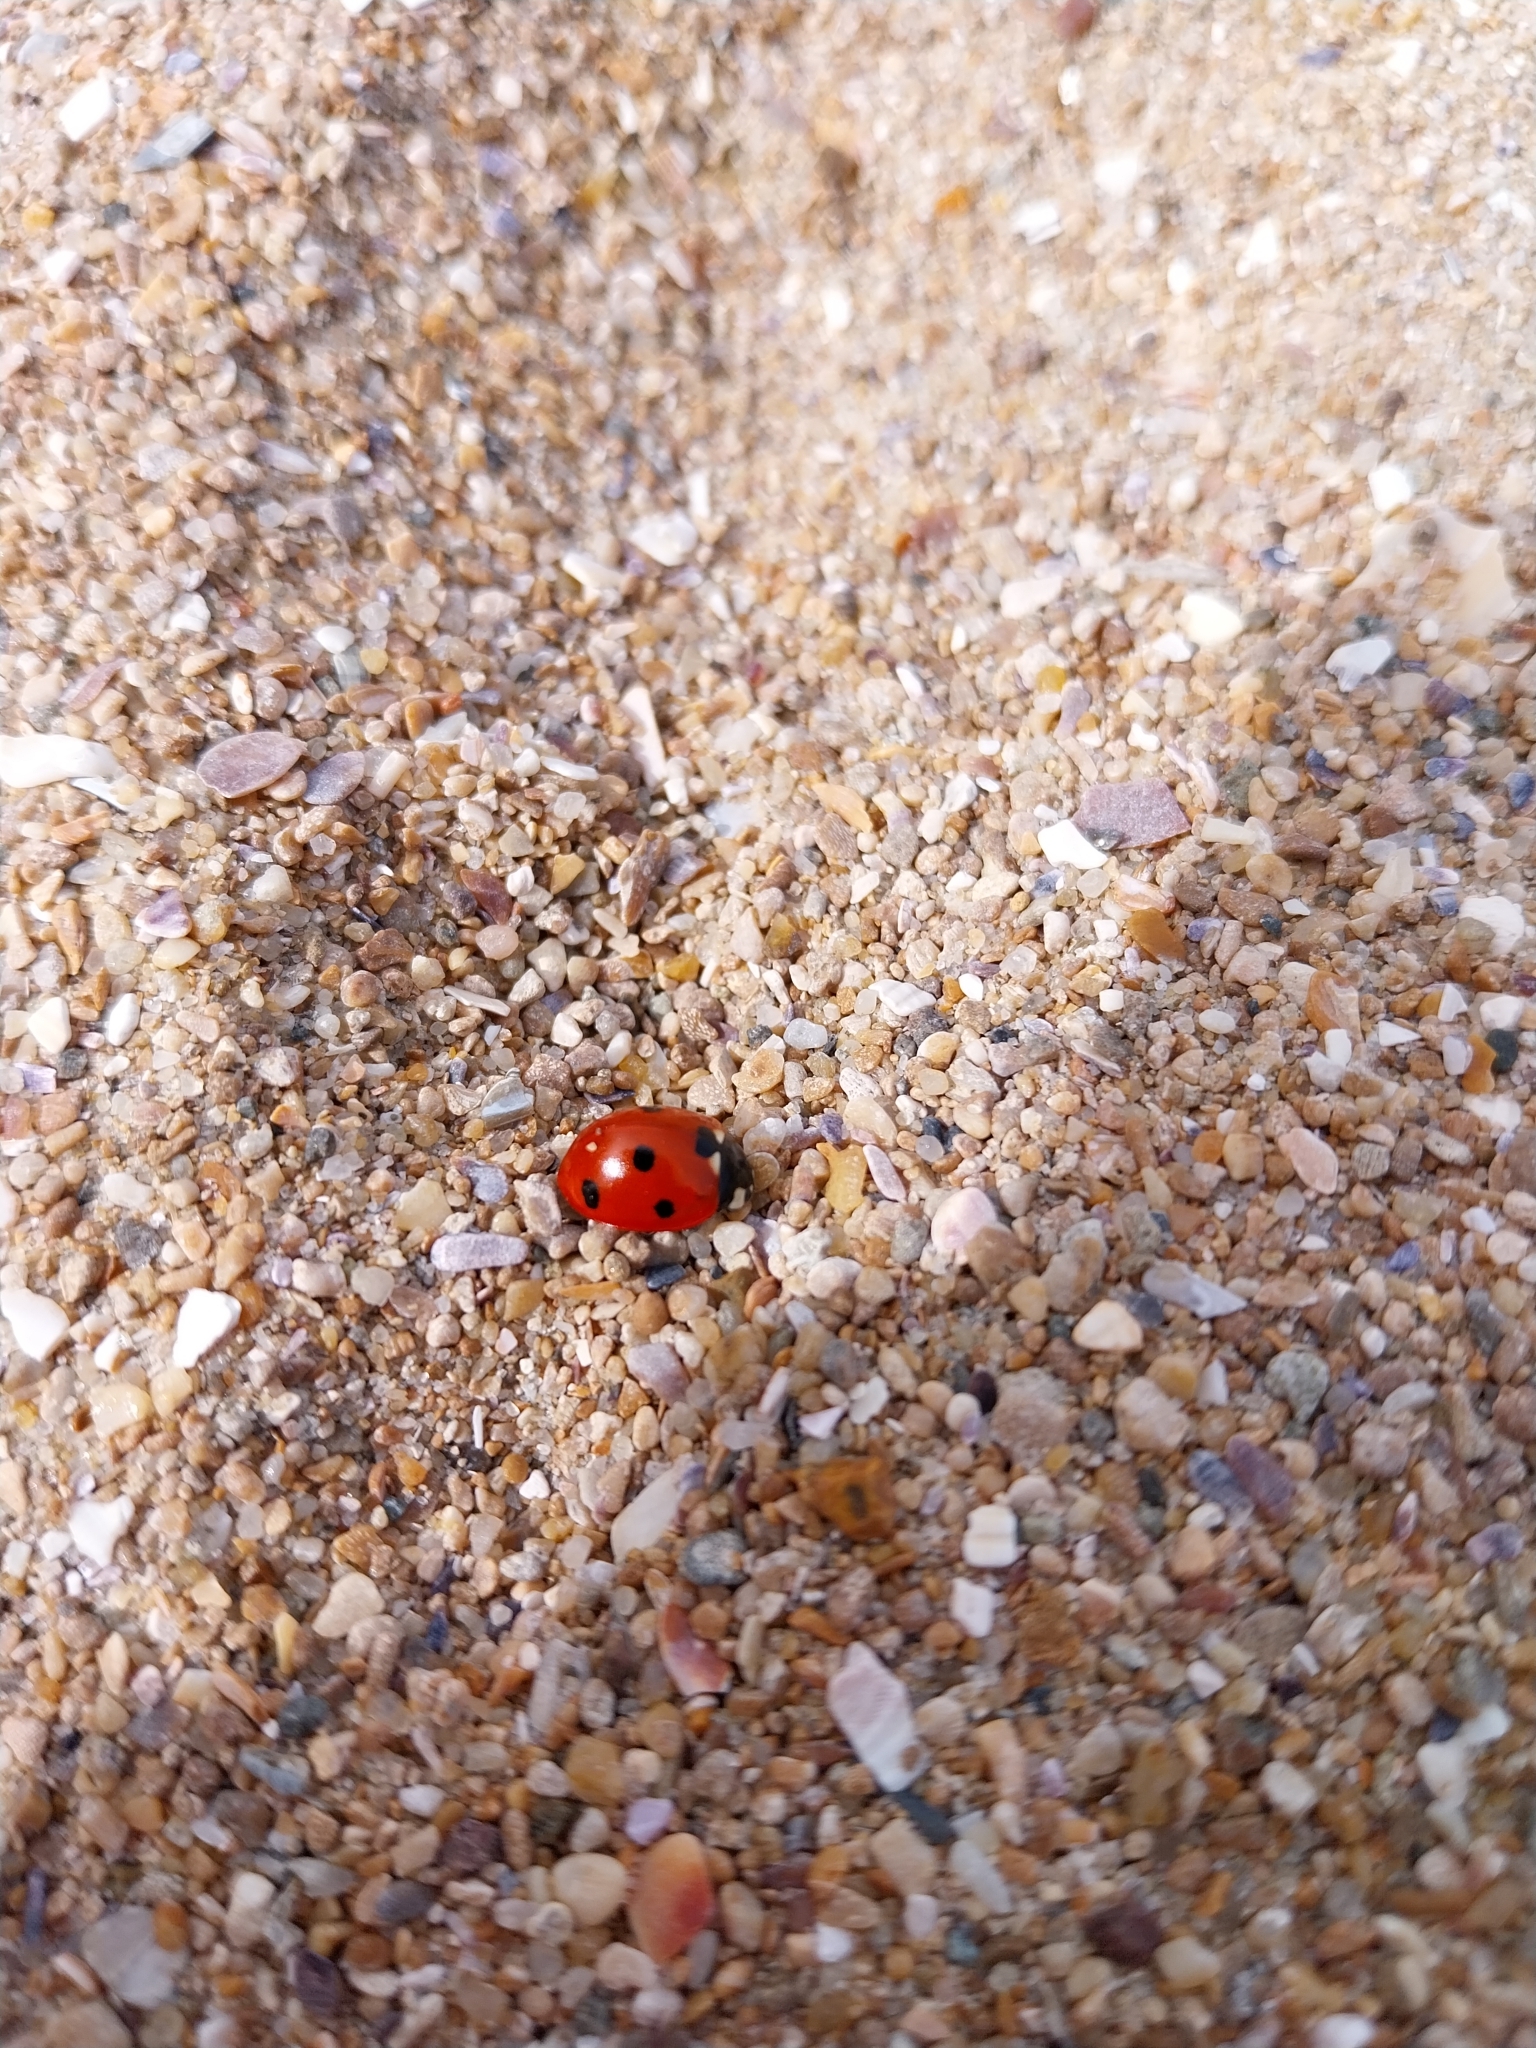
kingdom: Animalia
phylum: Arthropoda
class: Insecta
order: Coleoptera
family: Coccinellidae
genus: Coccinella
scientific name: Coccinella septempunctata
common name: Sevenspotted lady beetle
